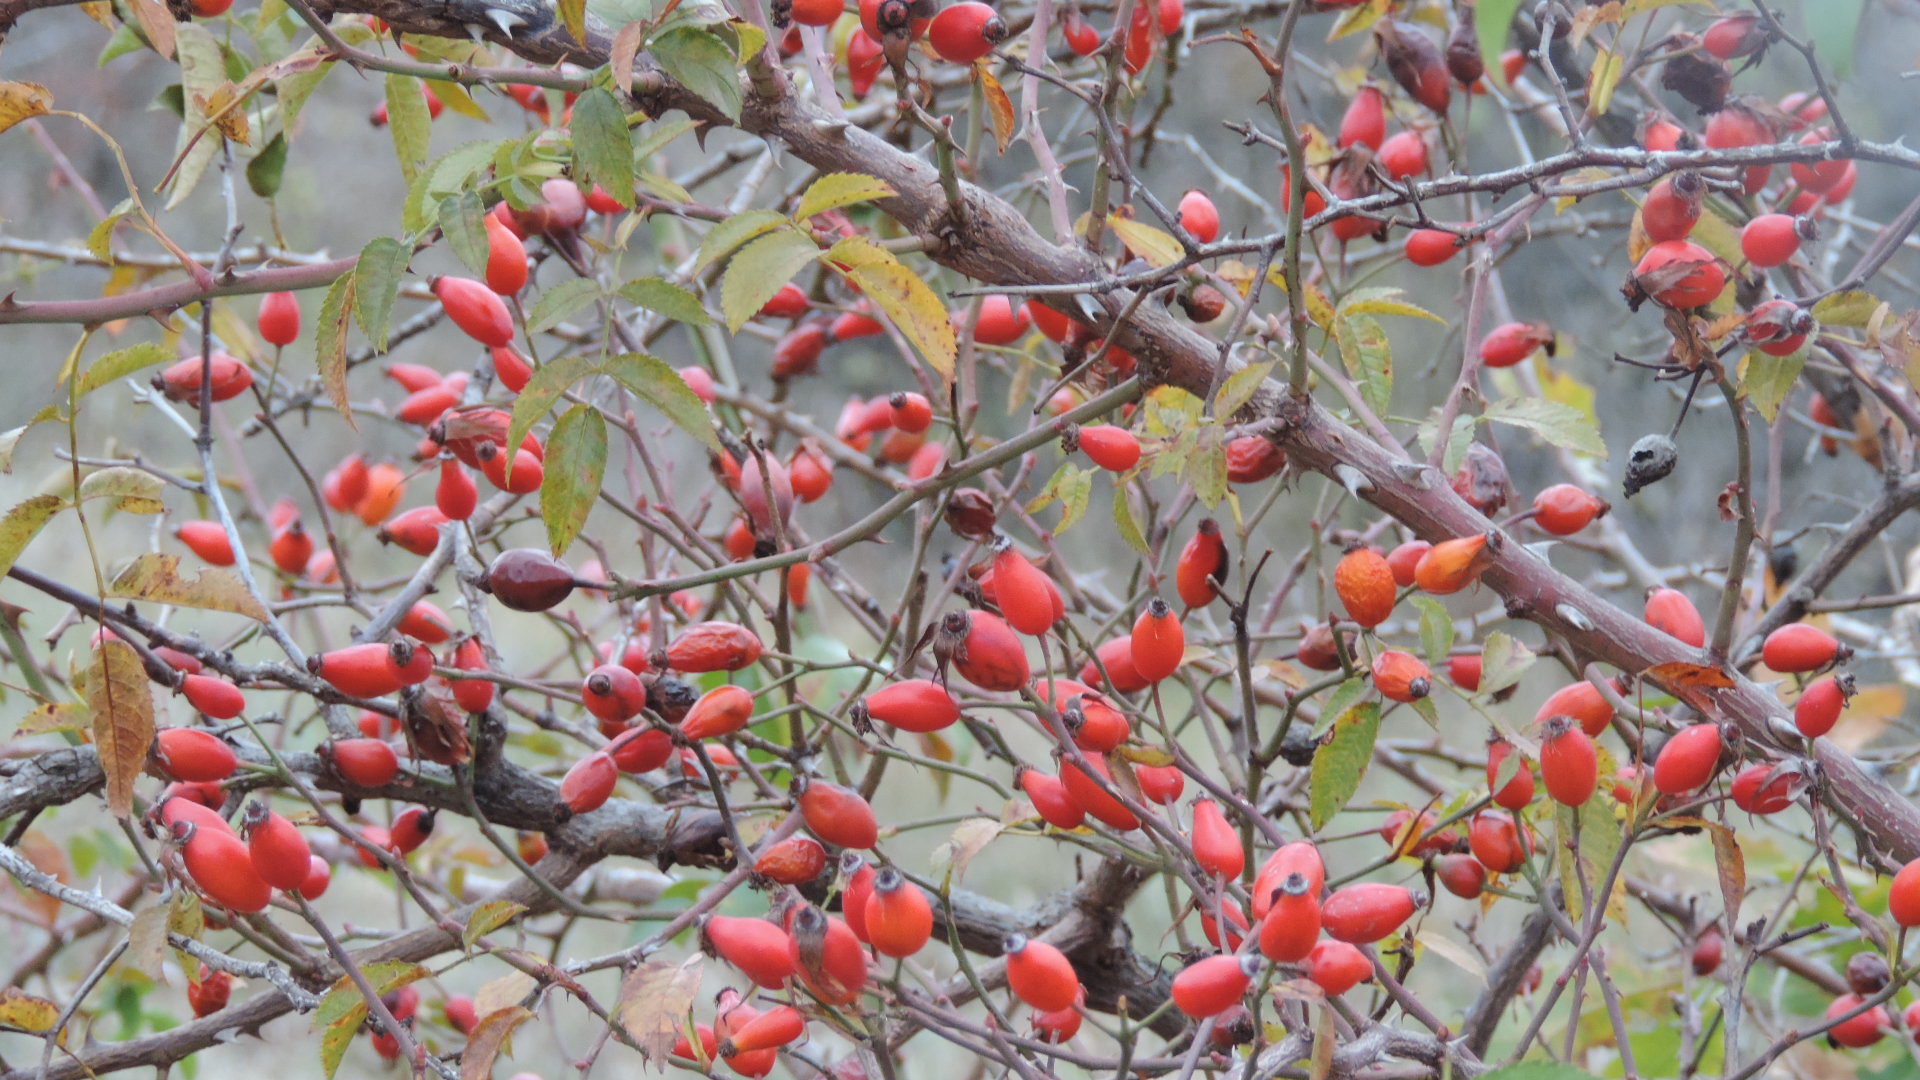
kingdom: Plantae
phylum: Tracheophyta
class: Magnoliopsida
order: Rosales
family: Rosaceae
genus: Rosa
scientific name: Rosa canina
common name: Dog rose
